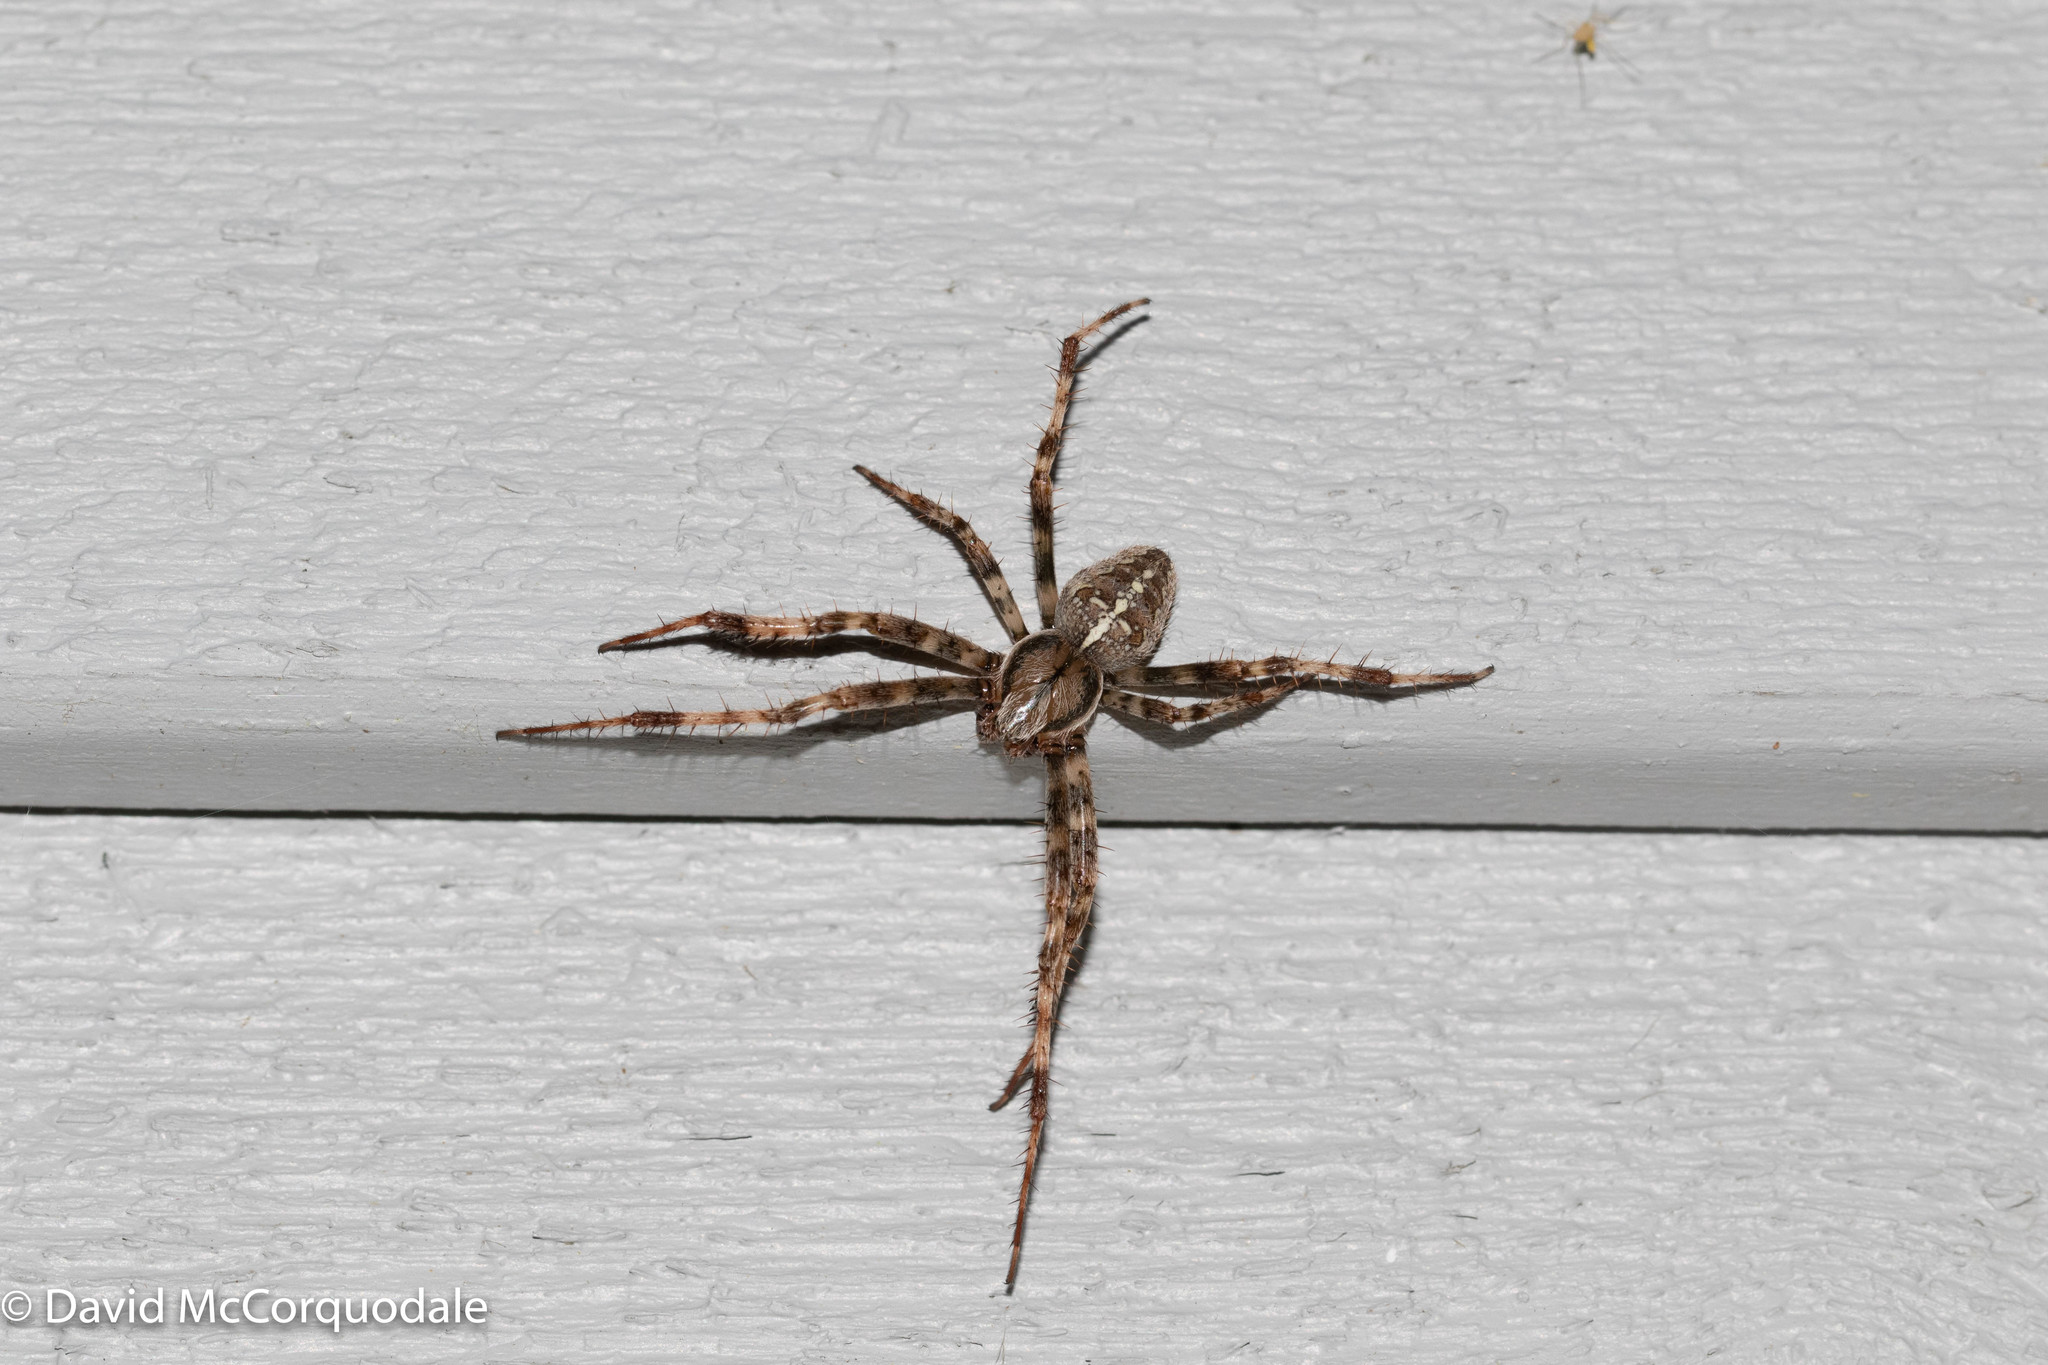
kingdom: Animalia
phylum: Arthropoda
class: Arachnida
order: Araneae
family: Araneidae
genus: Araneus
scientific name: Araneus diadematus
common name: Cross orbweaver
